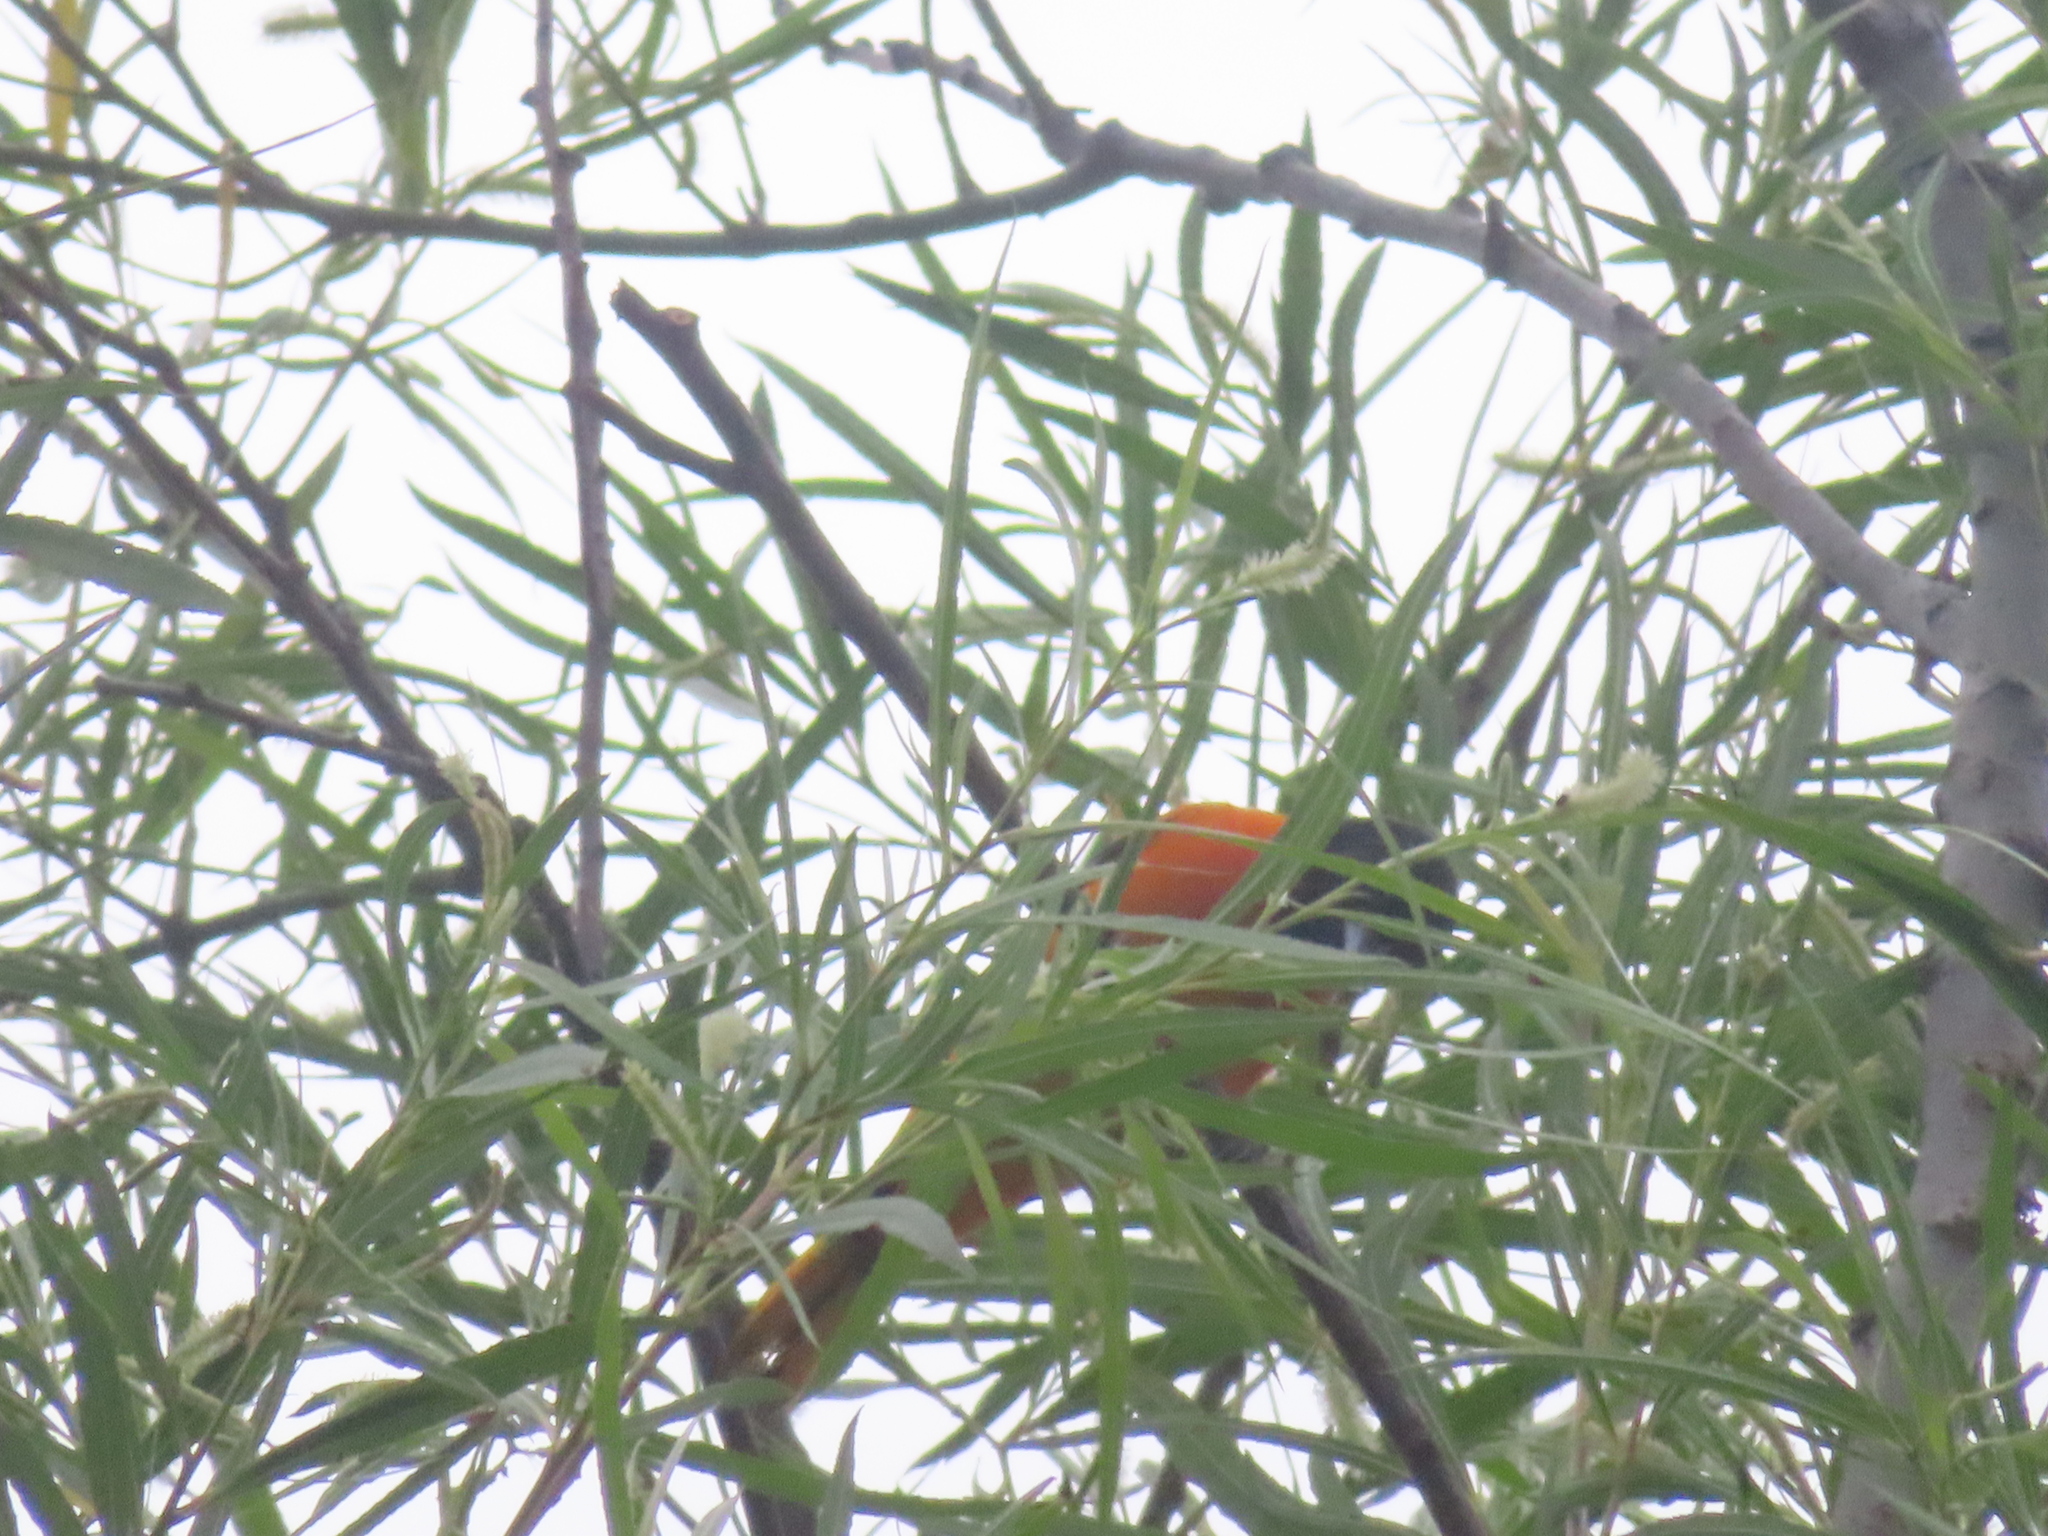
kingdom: Animalia
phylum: Chordata
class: Aves
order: Passeriformes
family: Icteridae
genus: Icterus
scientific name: Icterus galbula
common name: Baltimore oriole
